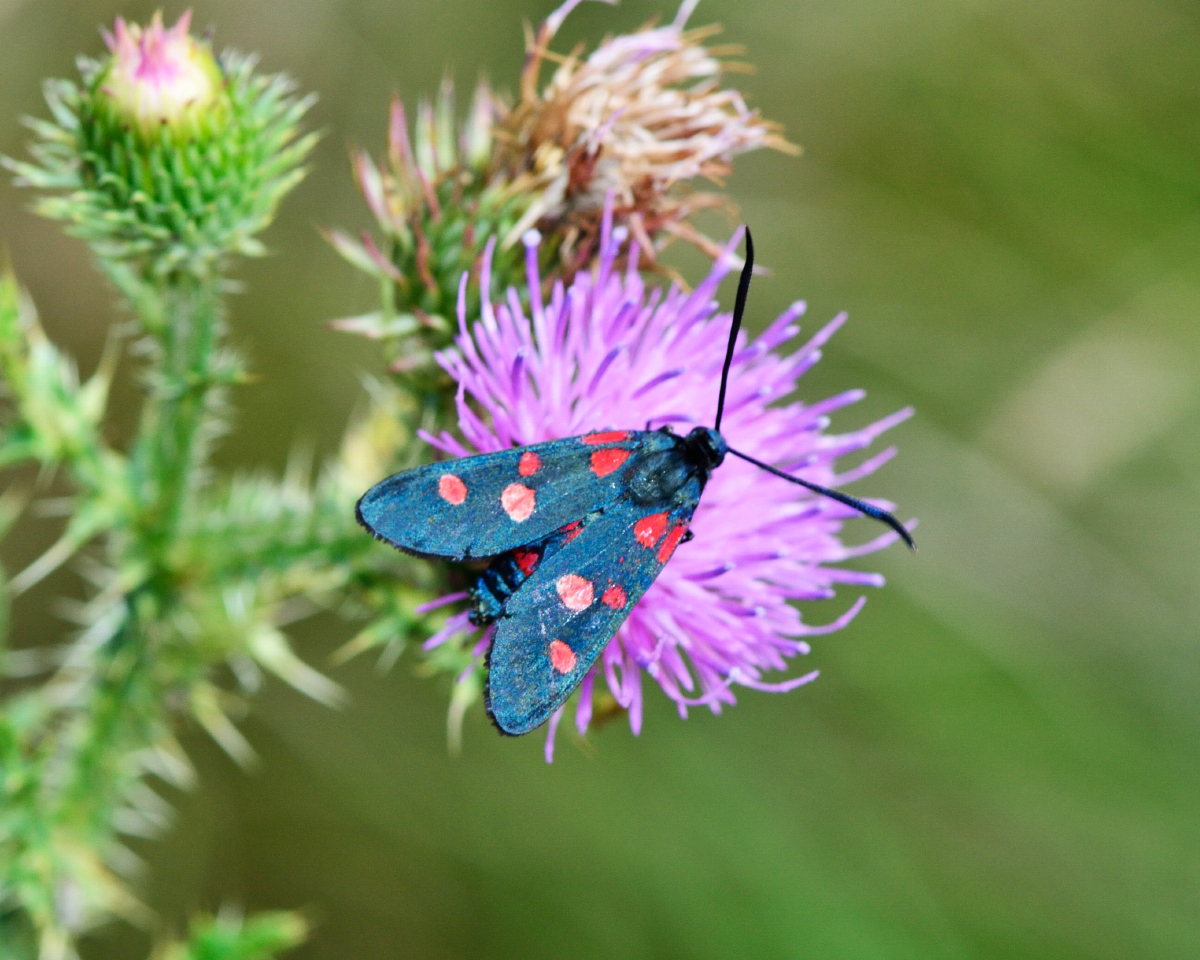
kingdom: Animalia
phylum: Arthropoda
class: Insecta
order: Lepidoptera
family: Zygaenidae
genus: Zygaena
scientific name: Zygaena ephialtes
